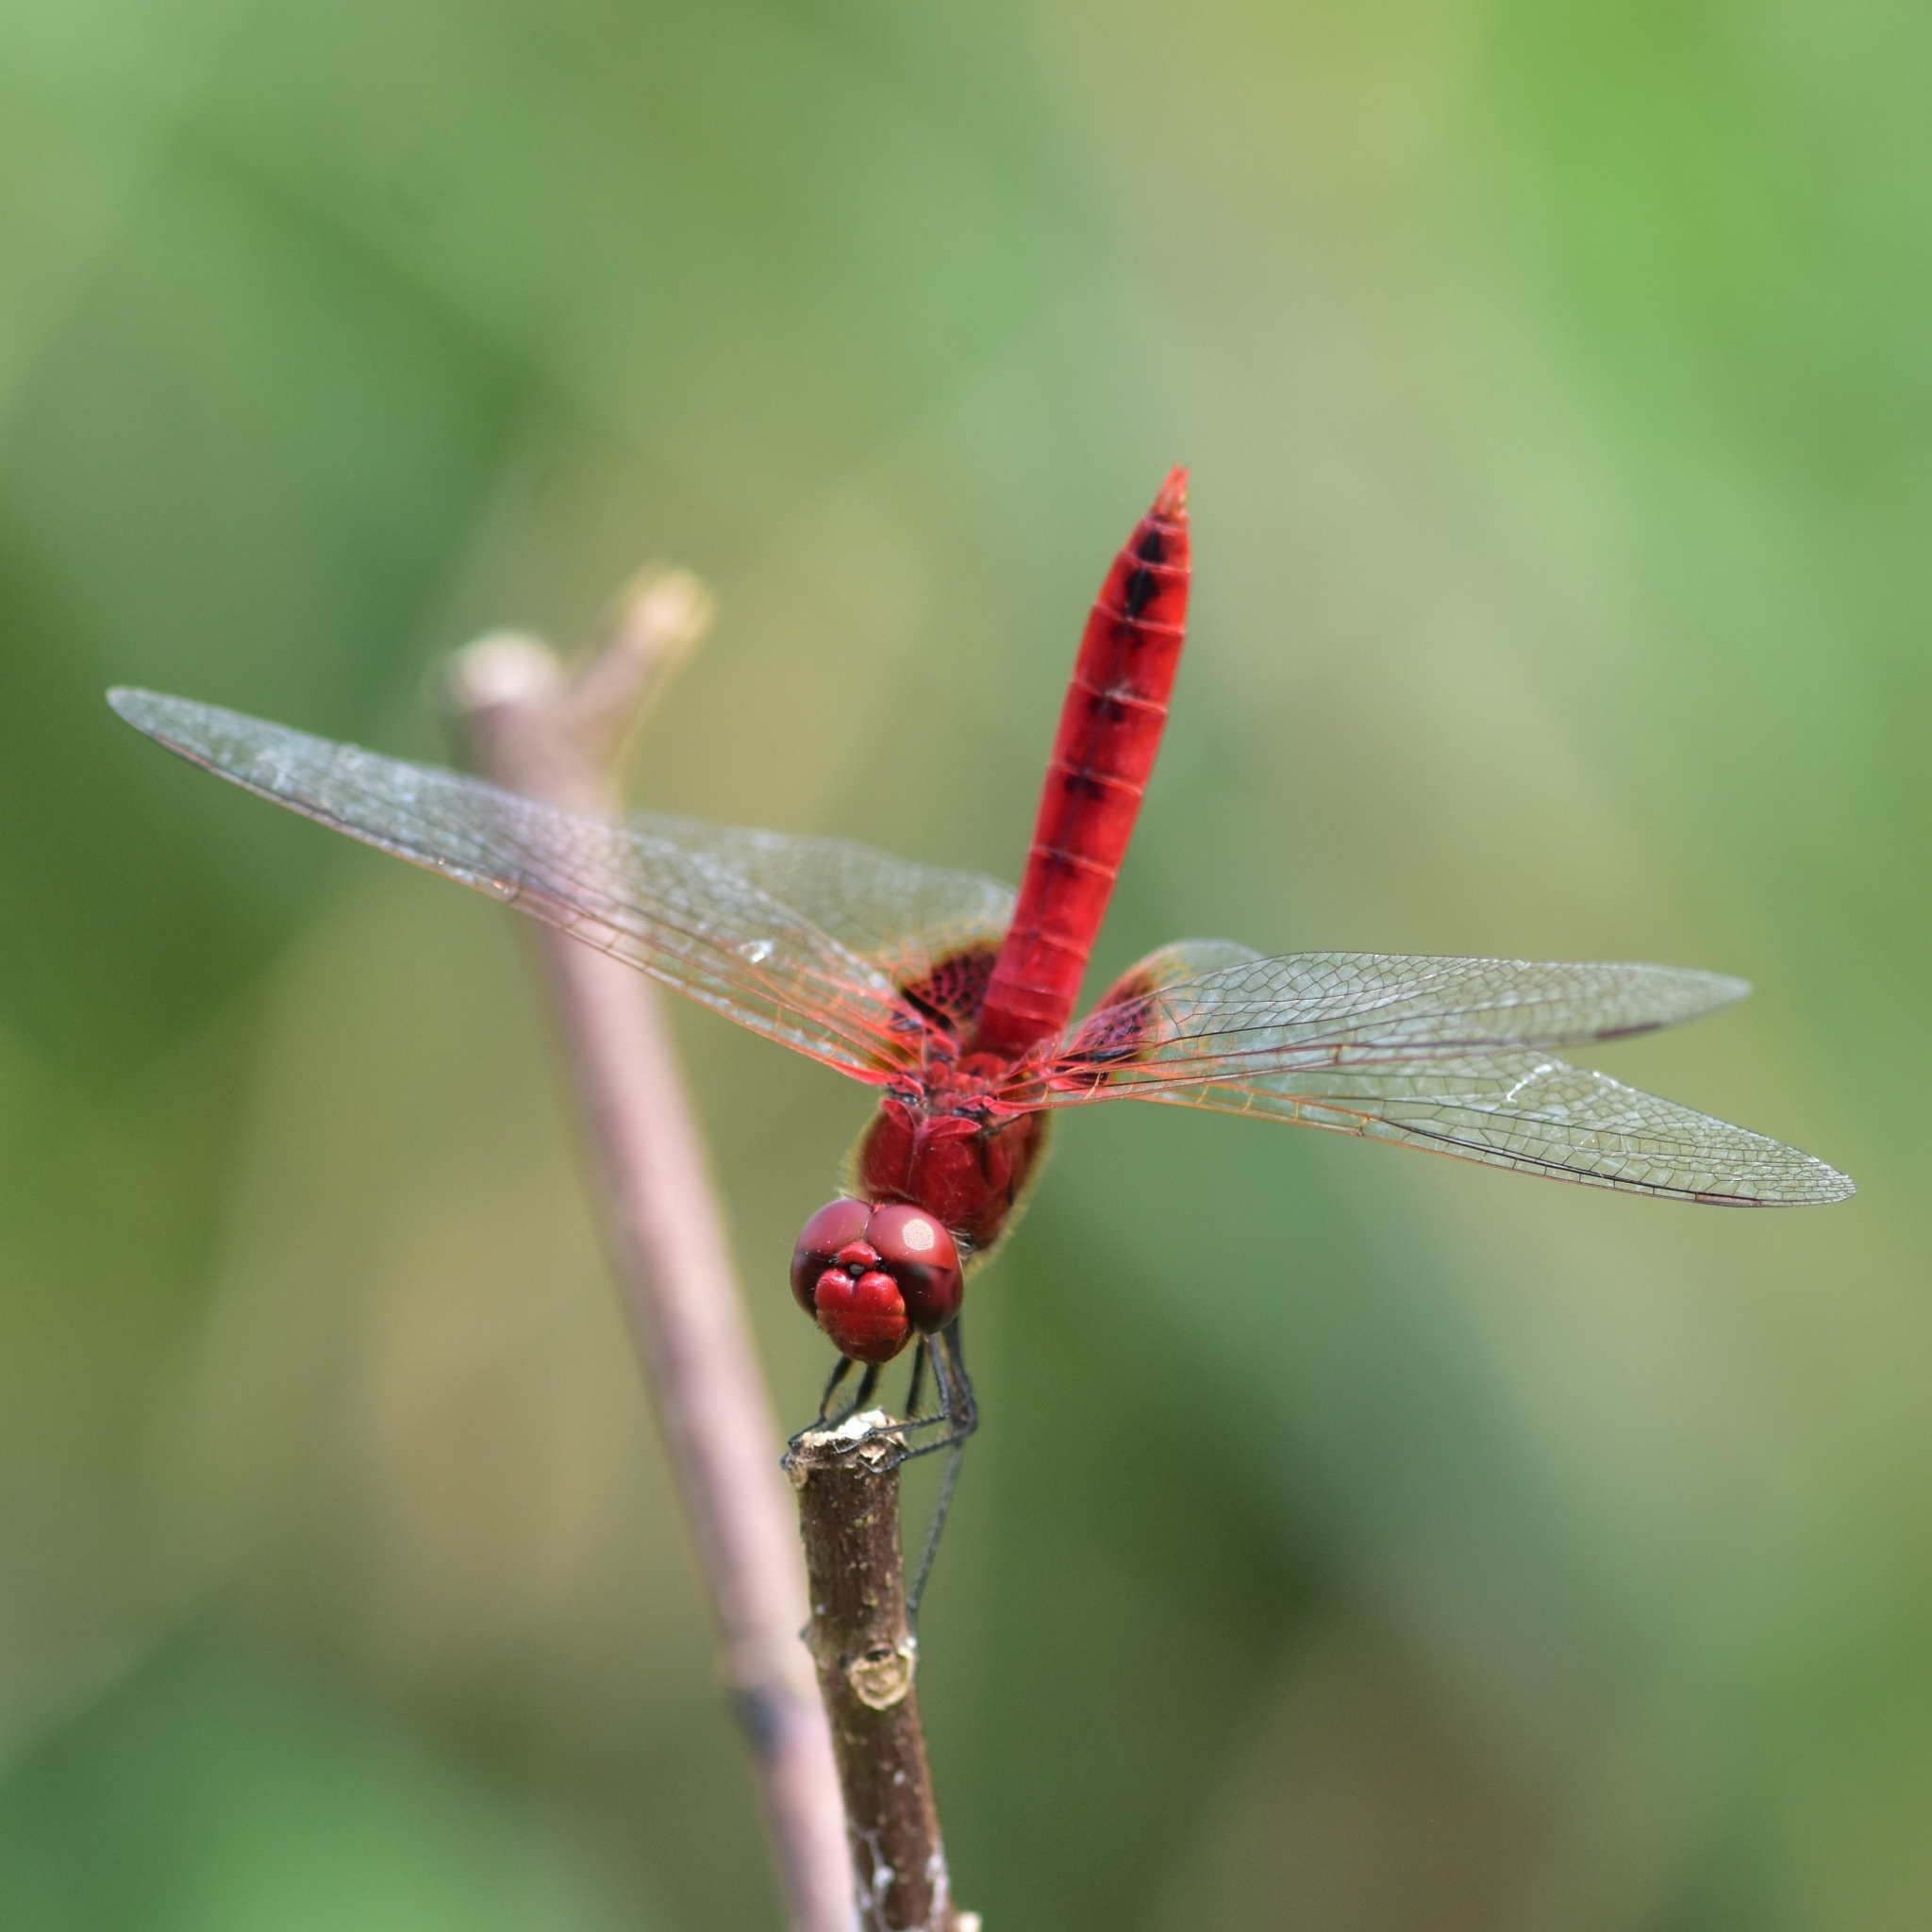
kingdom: Animalia
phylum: Arthropoda
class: Insecta
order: Odonata
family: Libellulidae
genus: Urothemis
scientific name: Urothemis signata
